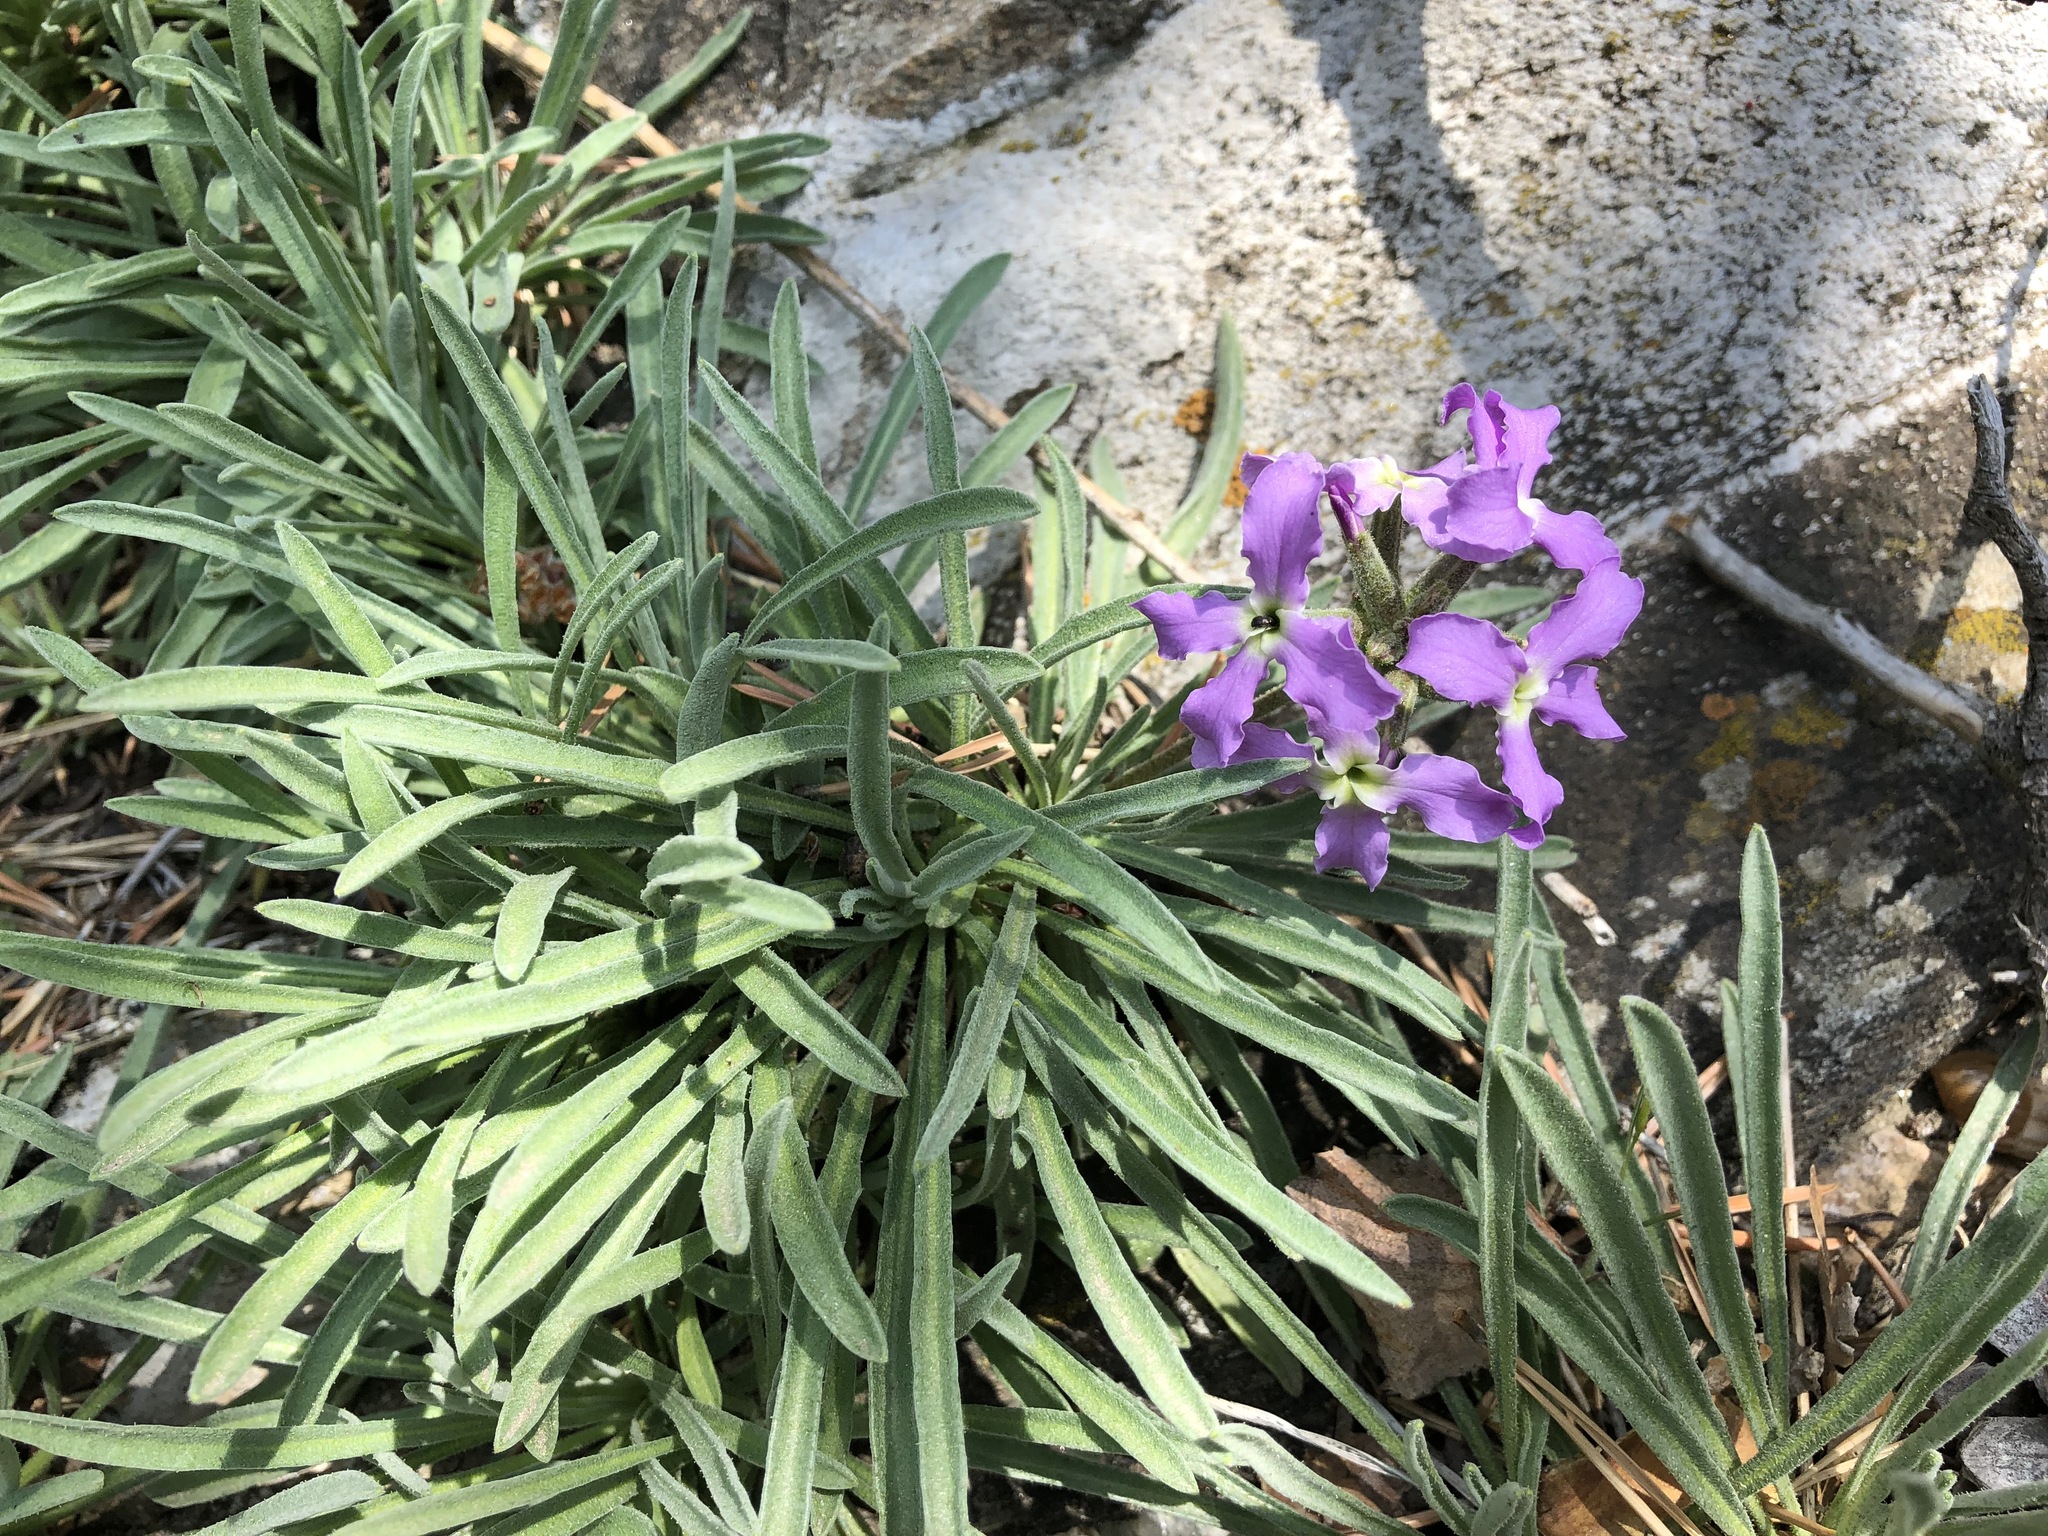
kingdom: Plantae
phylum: Tracheophyta
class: Magnoliopsida
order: Brassicales
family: Brassicaceae
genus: Matthiola
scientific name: Matthiola fruticulosa
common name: Sad stock
